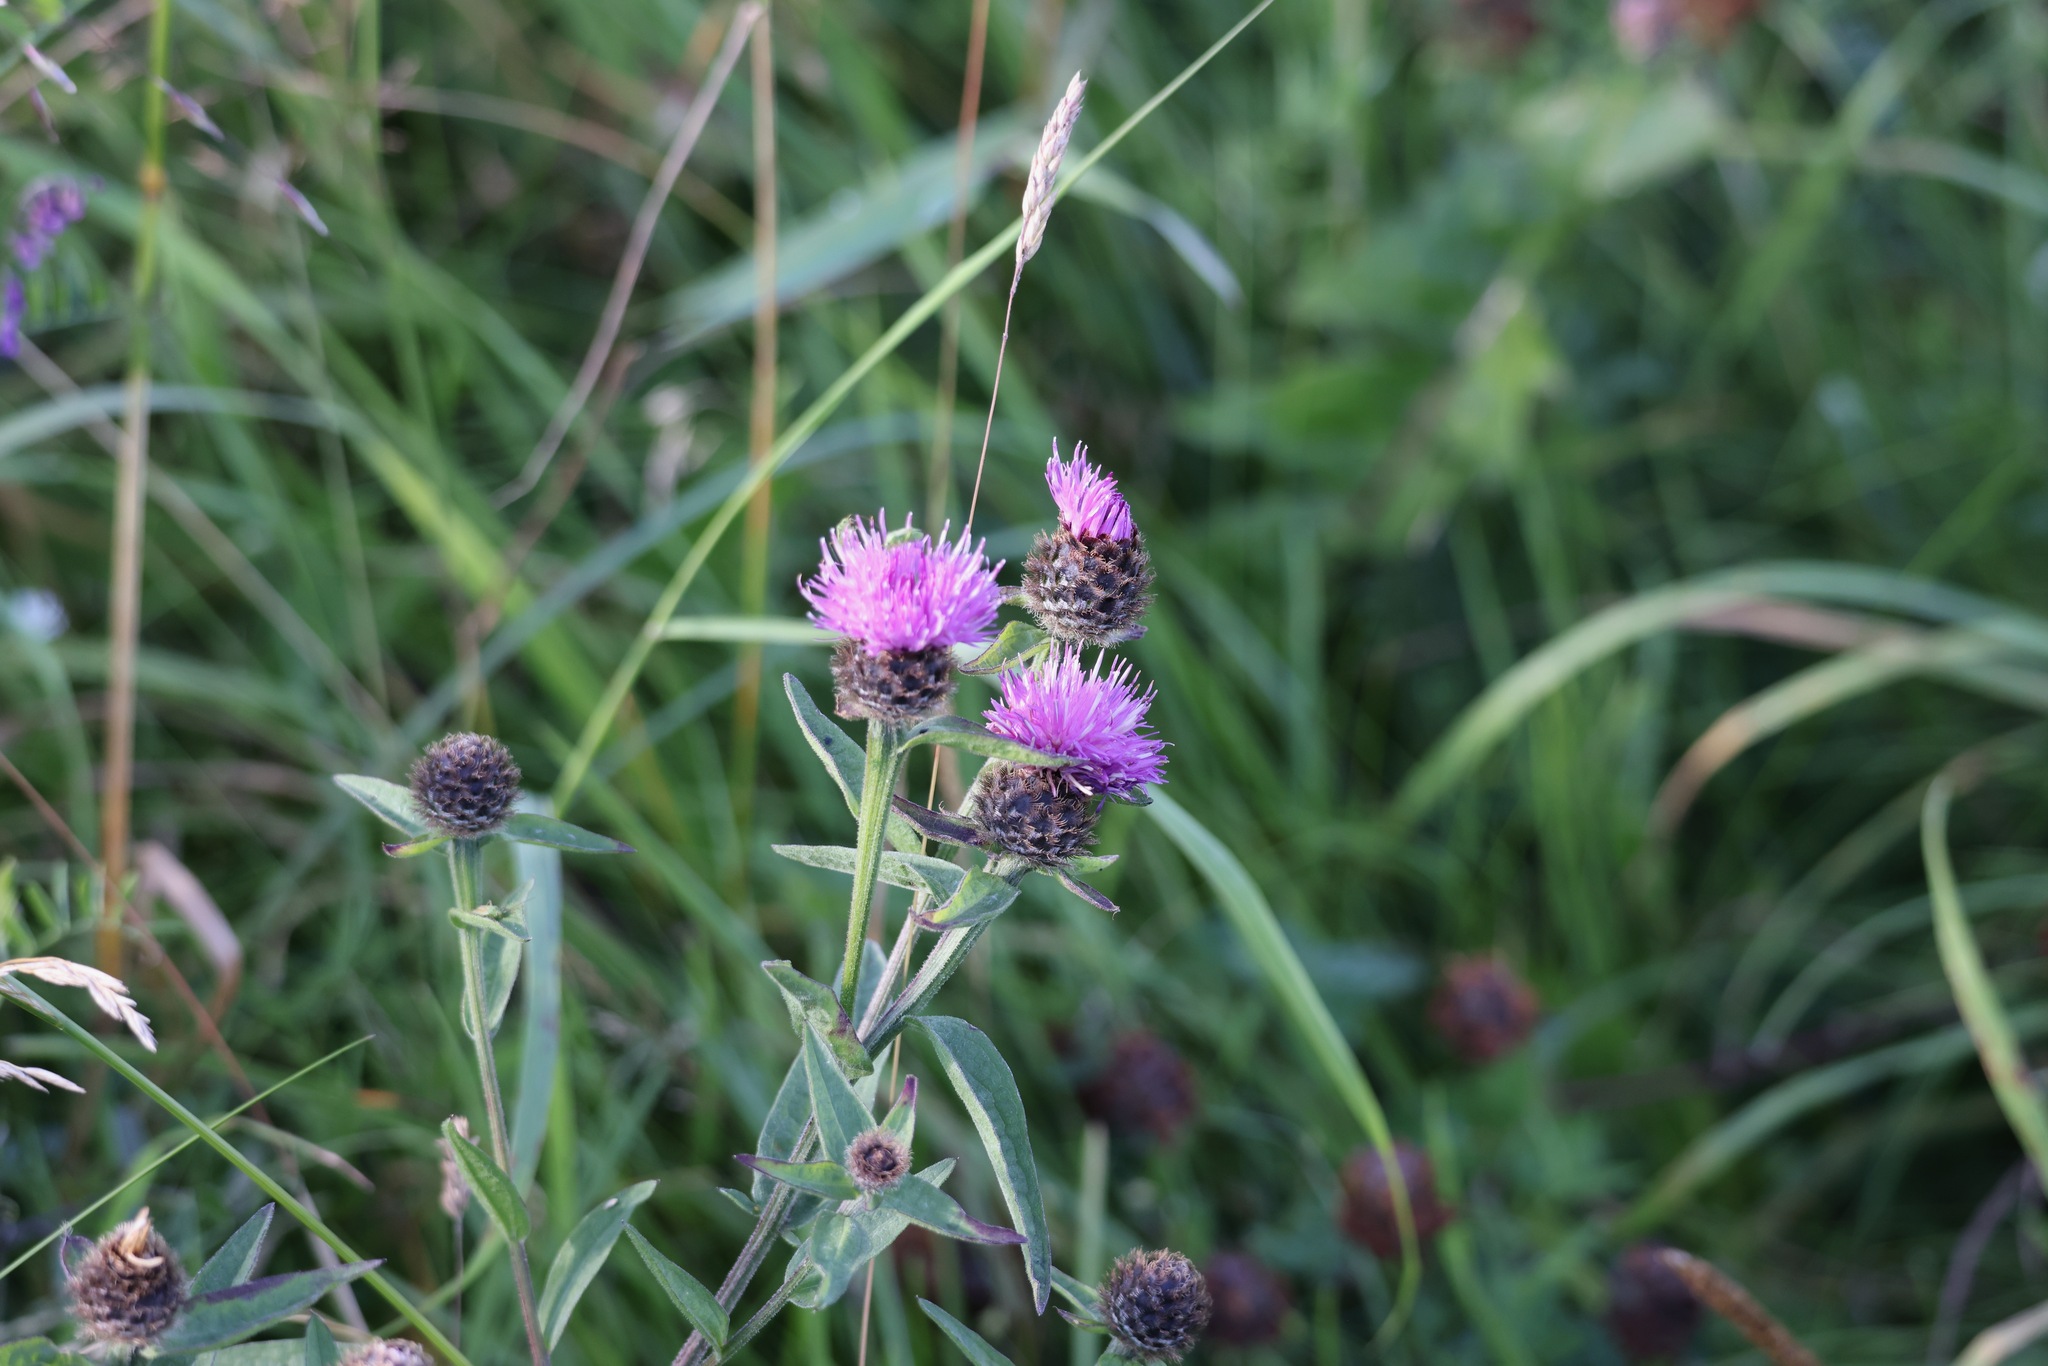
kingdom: Plantae
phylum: Tracheophyta
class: Magnoliopsida
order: Asterales
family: Asteraceae
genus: Centaurea
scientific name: Centaurea nigra
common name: Lesser knapweed
